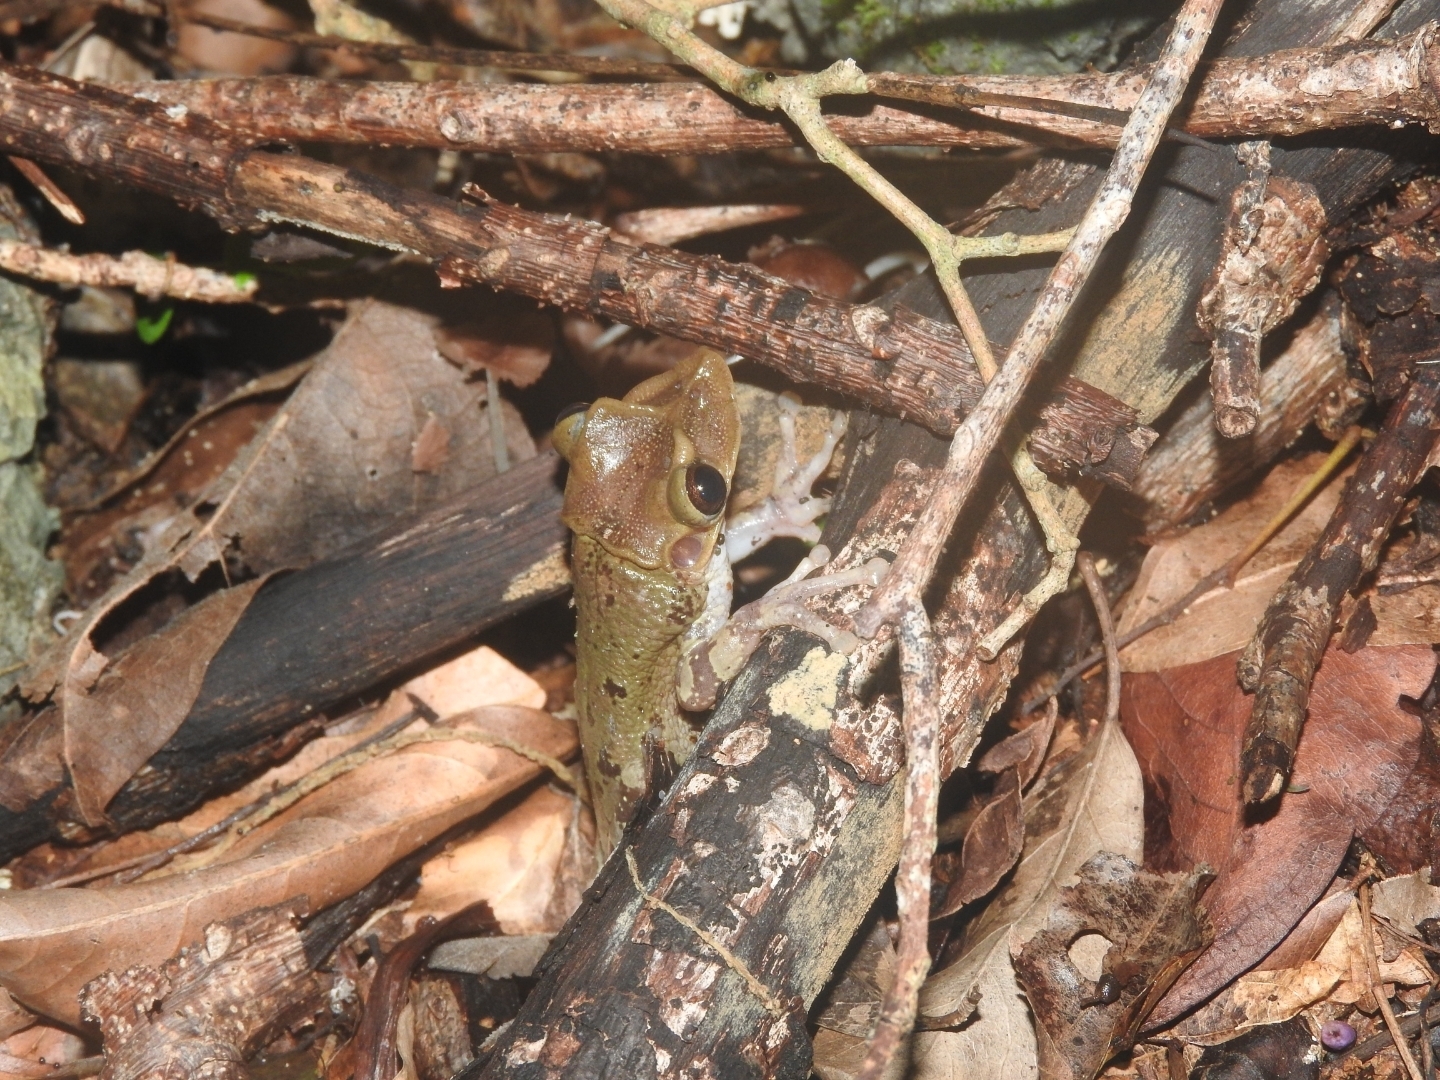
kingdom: Animalia
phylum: Chordata
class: Amphibia
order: Anura
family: Hylidae
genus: Triprion
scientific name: Triprion petasatus
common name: Yucatecan casque-headed treefrog
